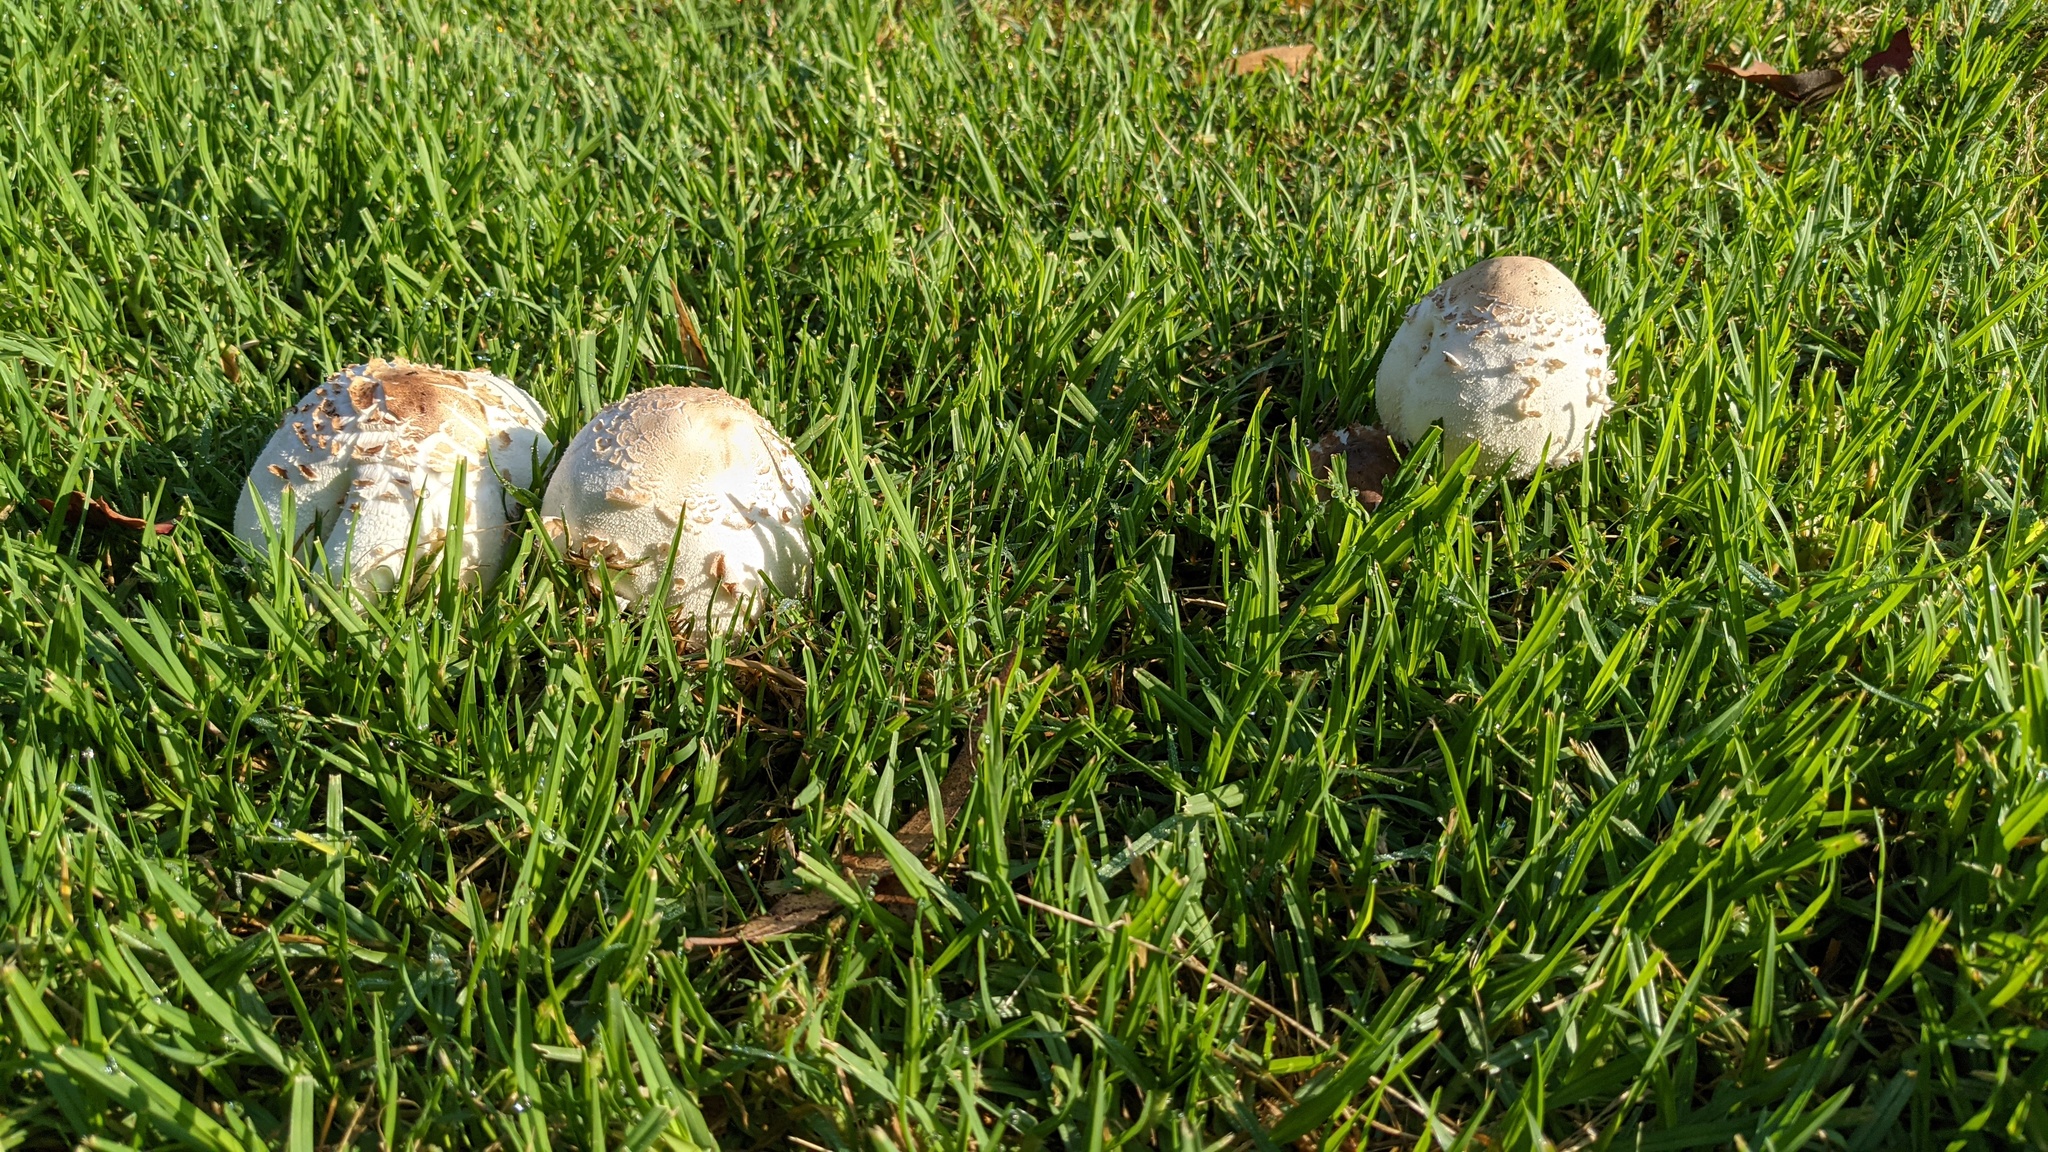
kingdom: Fungi
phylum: Basidiomycota
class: Agaricomycetes
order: Agaricales
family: Agaricaceae
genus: Chlorophyllum
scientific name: Chlorophyllum molybdites
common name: False parasol
